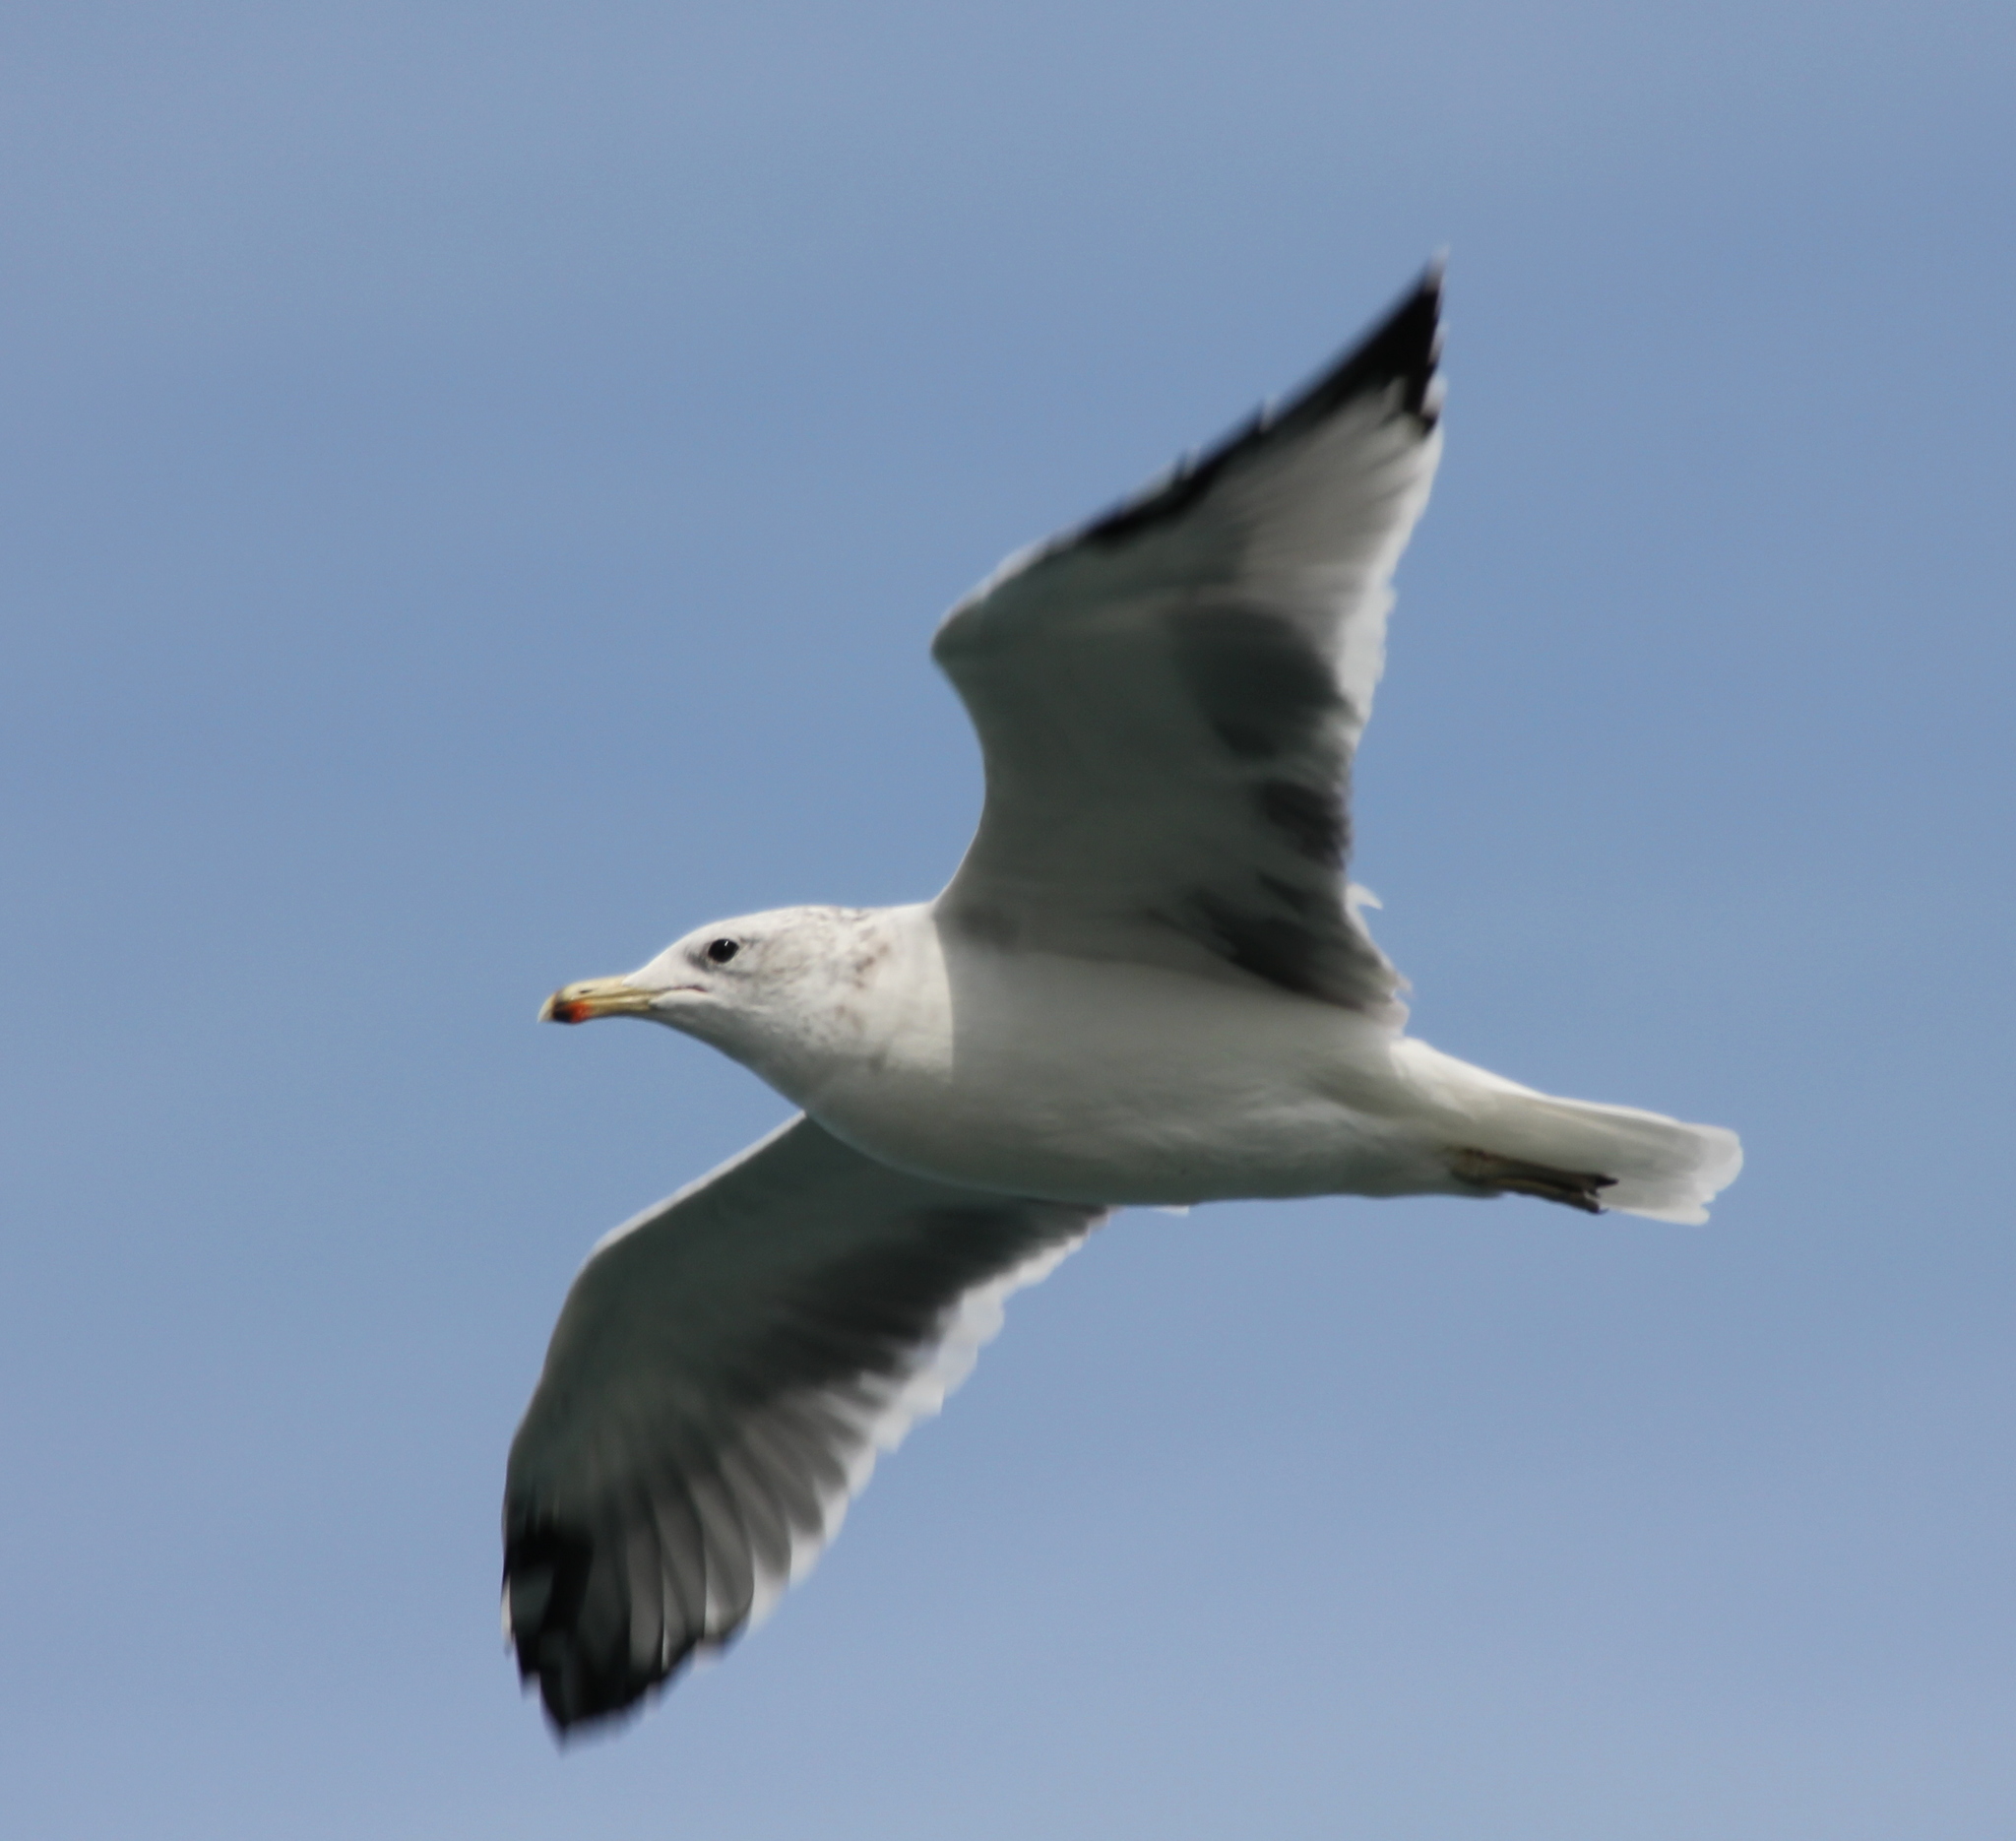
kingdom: Animalia
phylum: Chordata
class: Aves
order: Charadriiformes
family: Laridae
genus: Larus
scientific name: Larus californicus
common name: California gull
